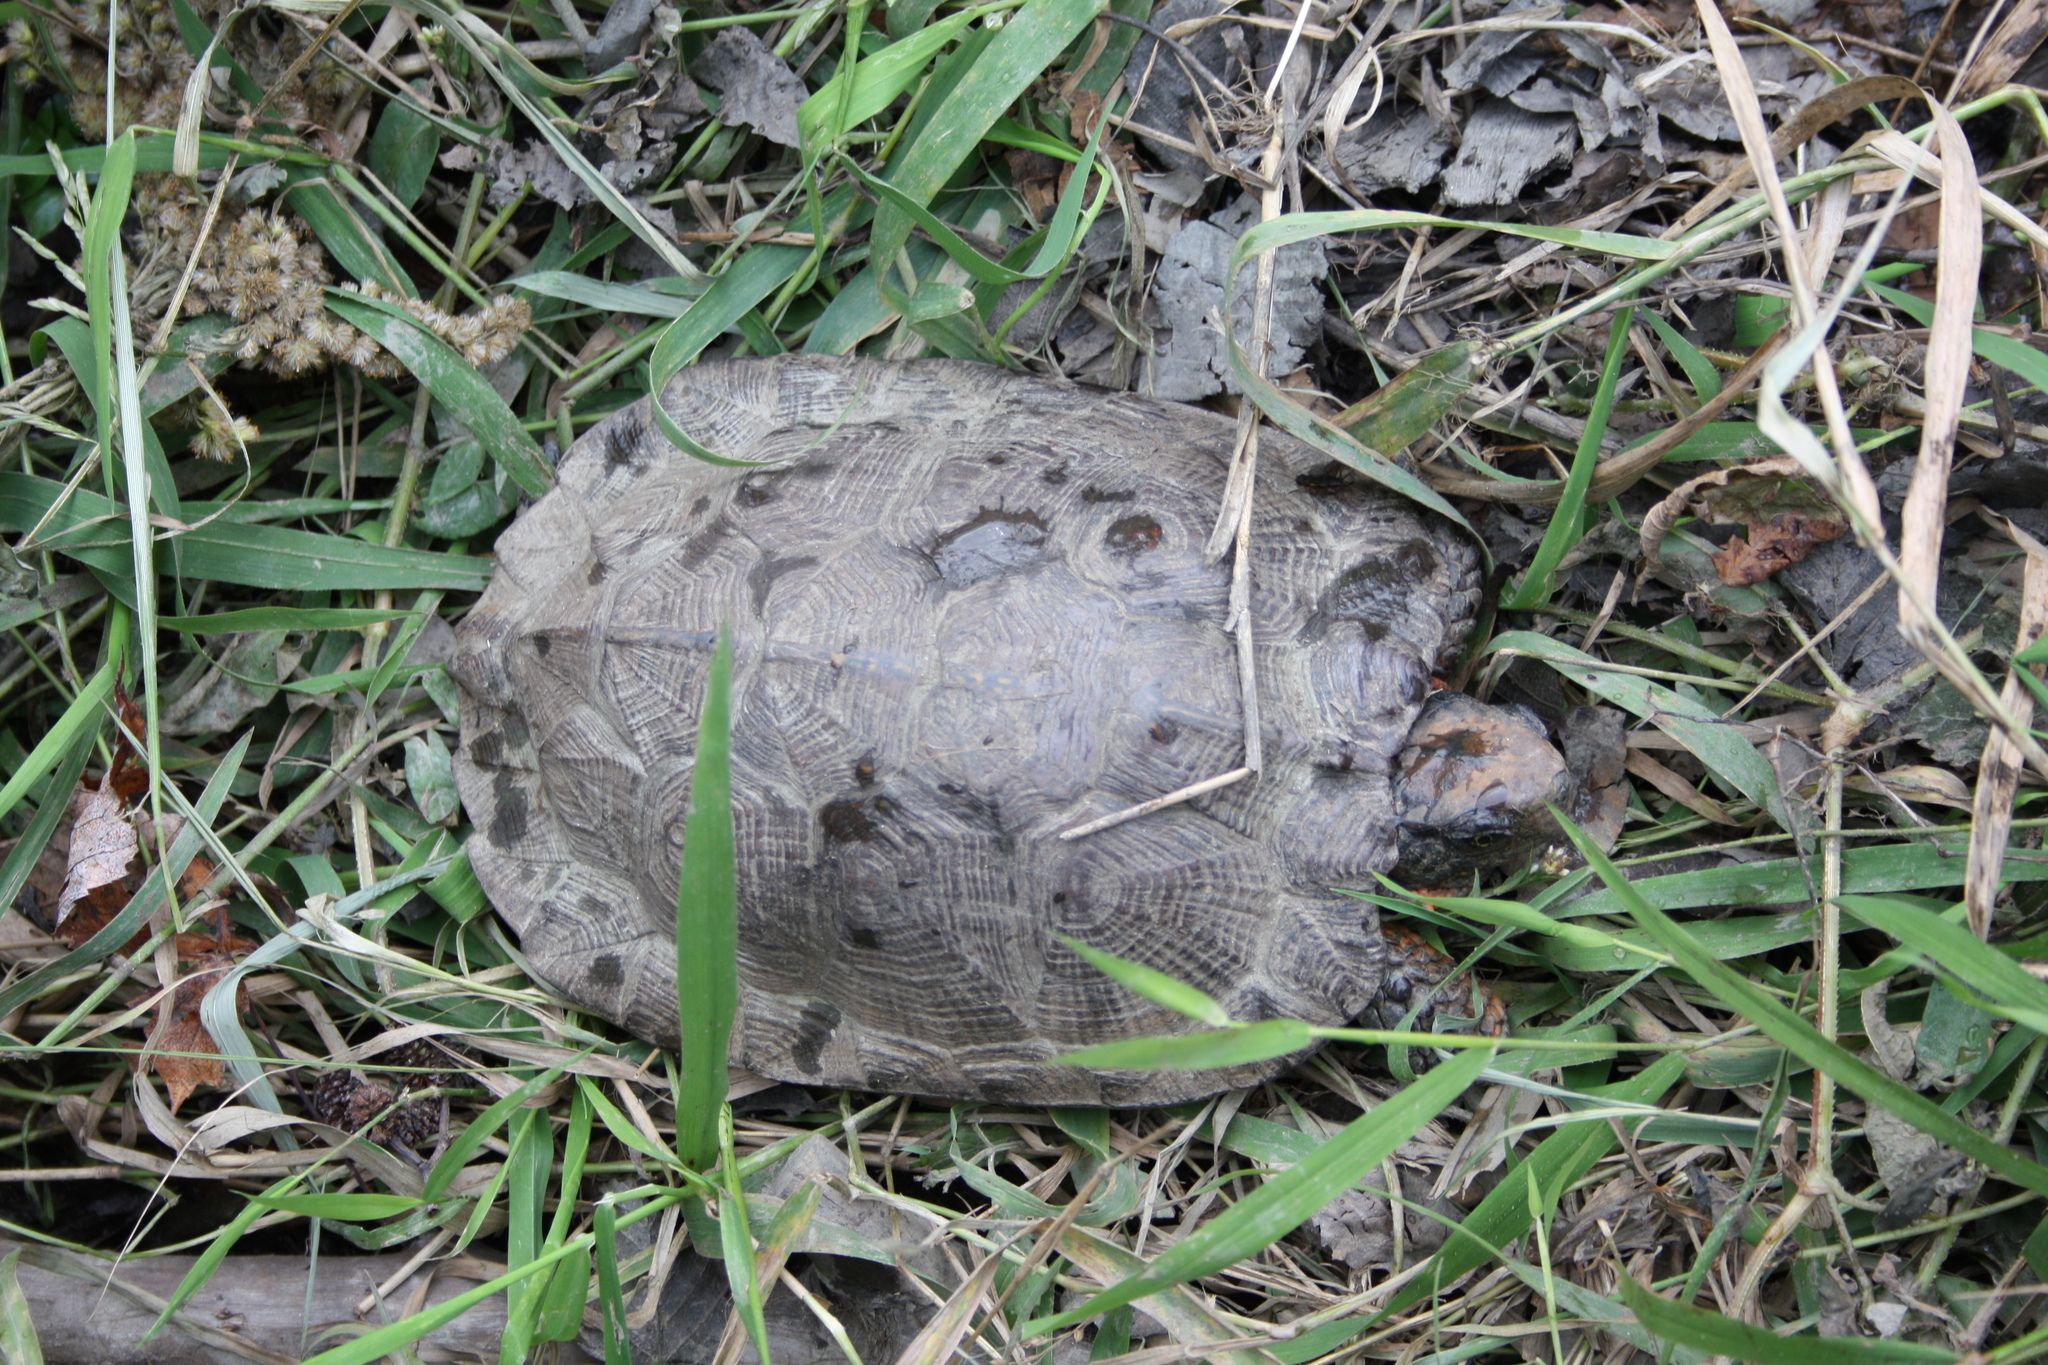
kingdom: Animalia
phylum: Chordata
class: Testudines
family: Emydidae
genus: Glyptemys
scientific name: Glyptemys insculpta
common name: Wood turtle
